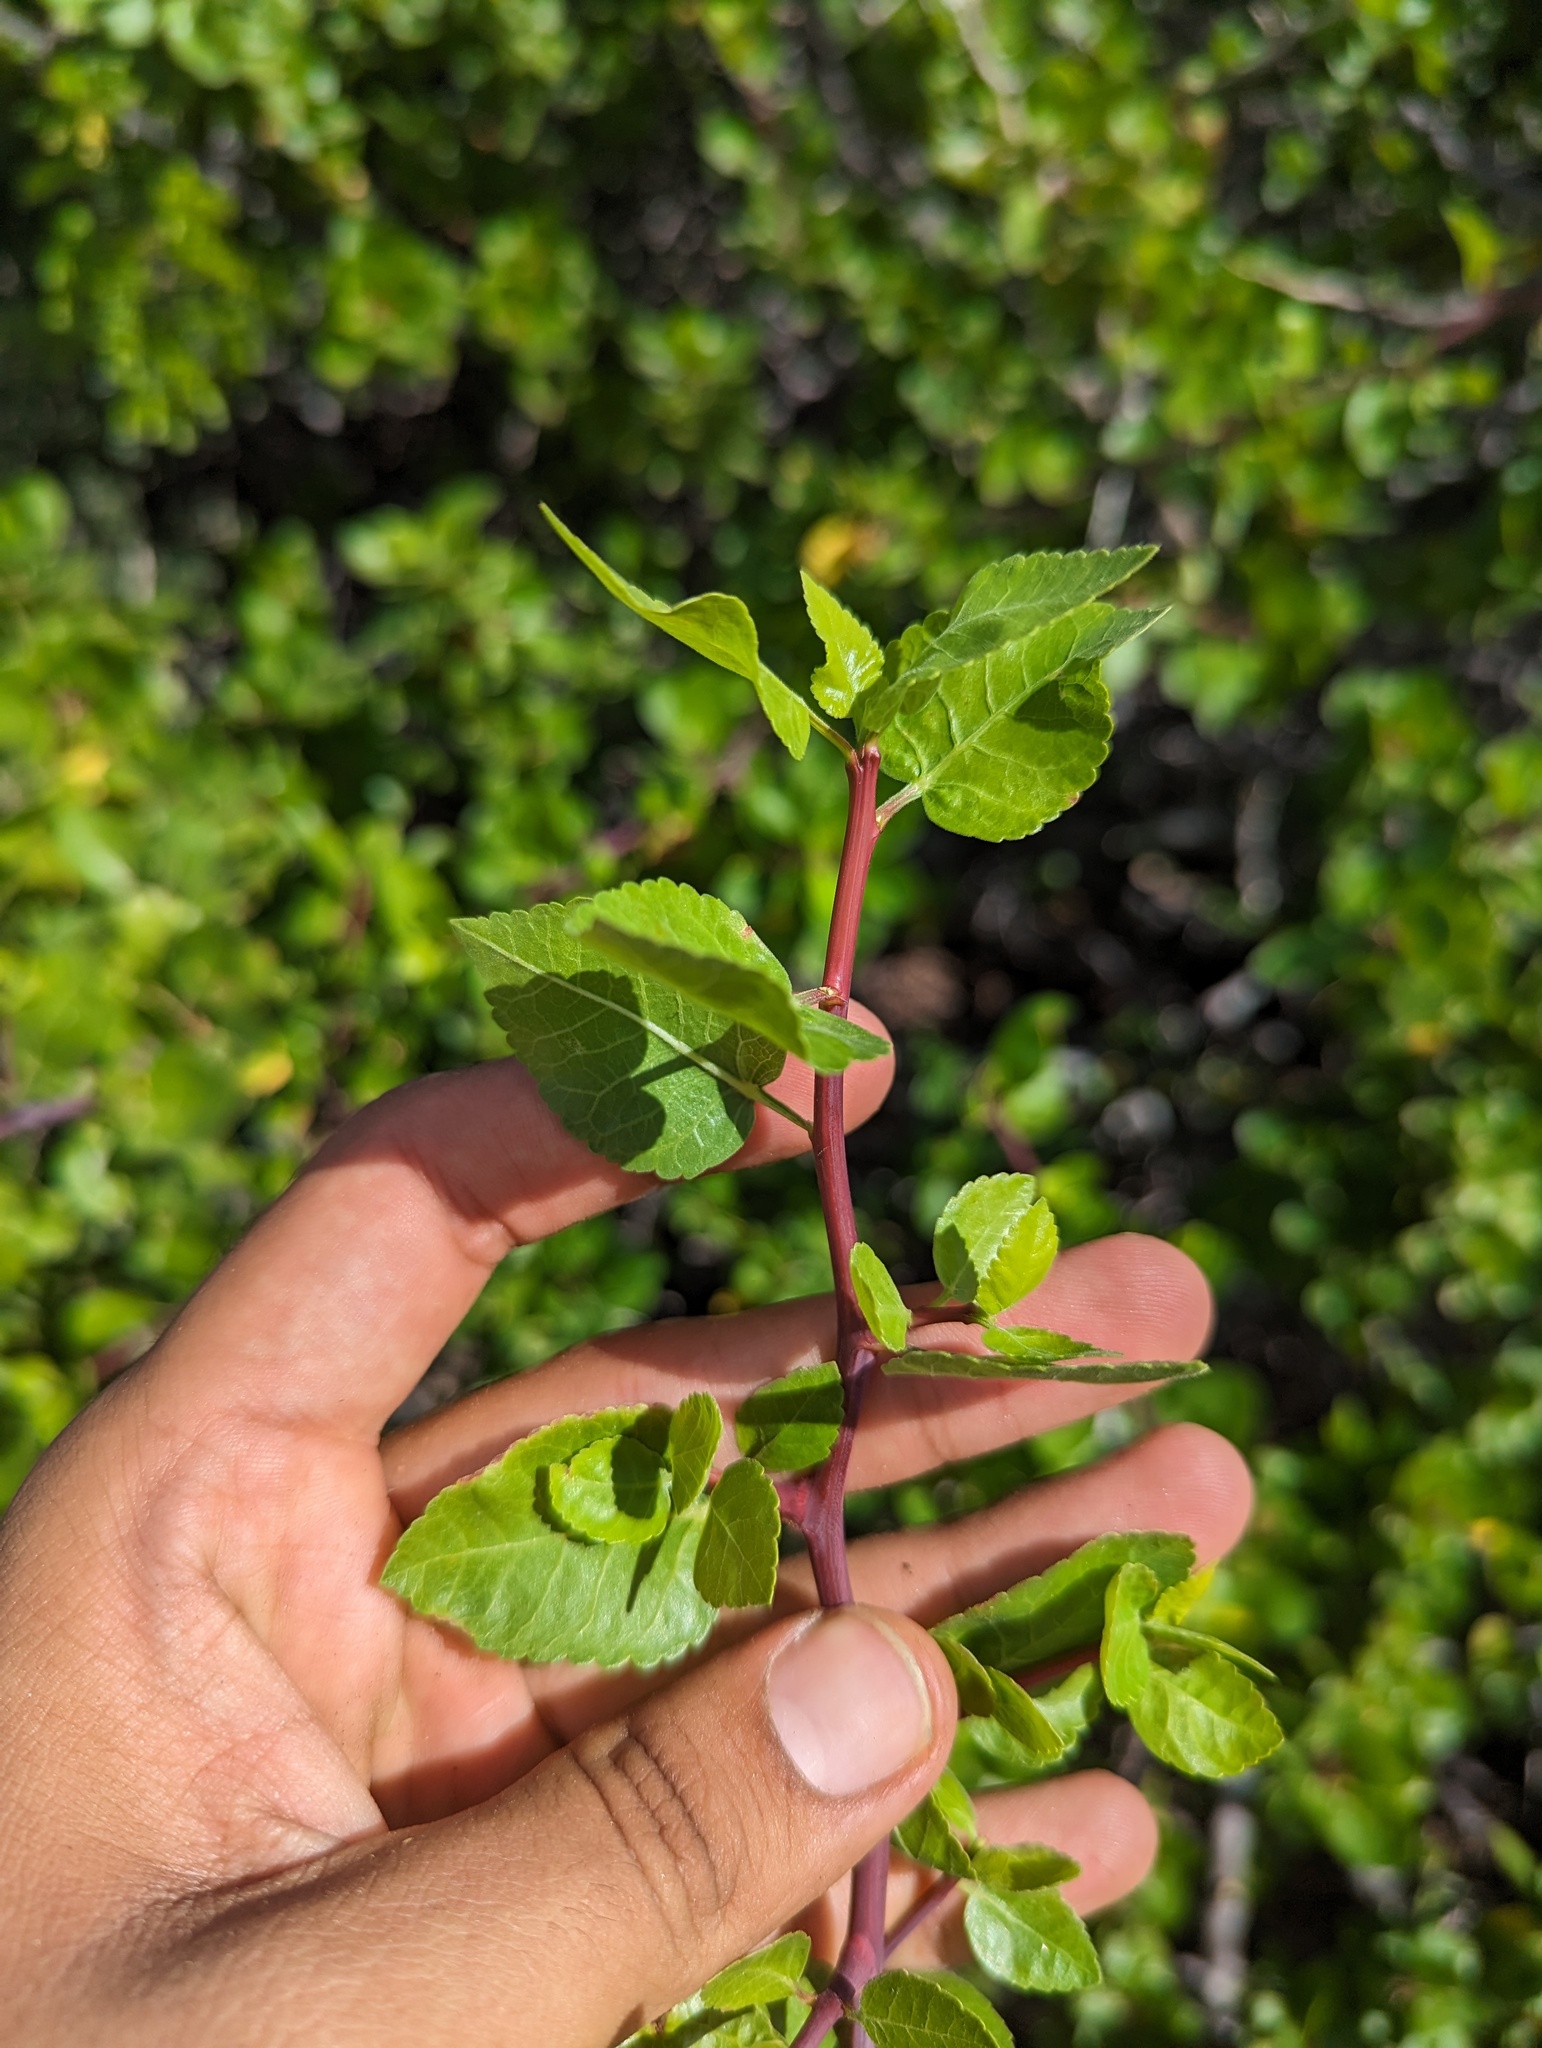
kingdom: Plantae
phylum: Tracheophyta
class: Magnoliopsida
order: Sapindales
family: Burseraceae
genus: Bursera
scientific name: Bursera epinnata
